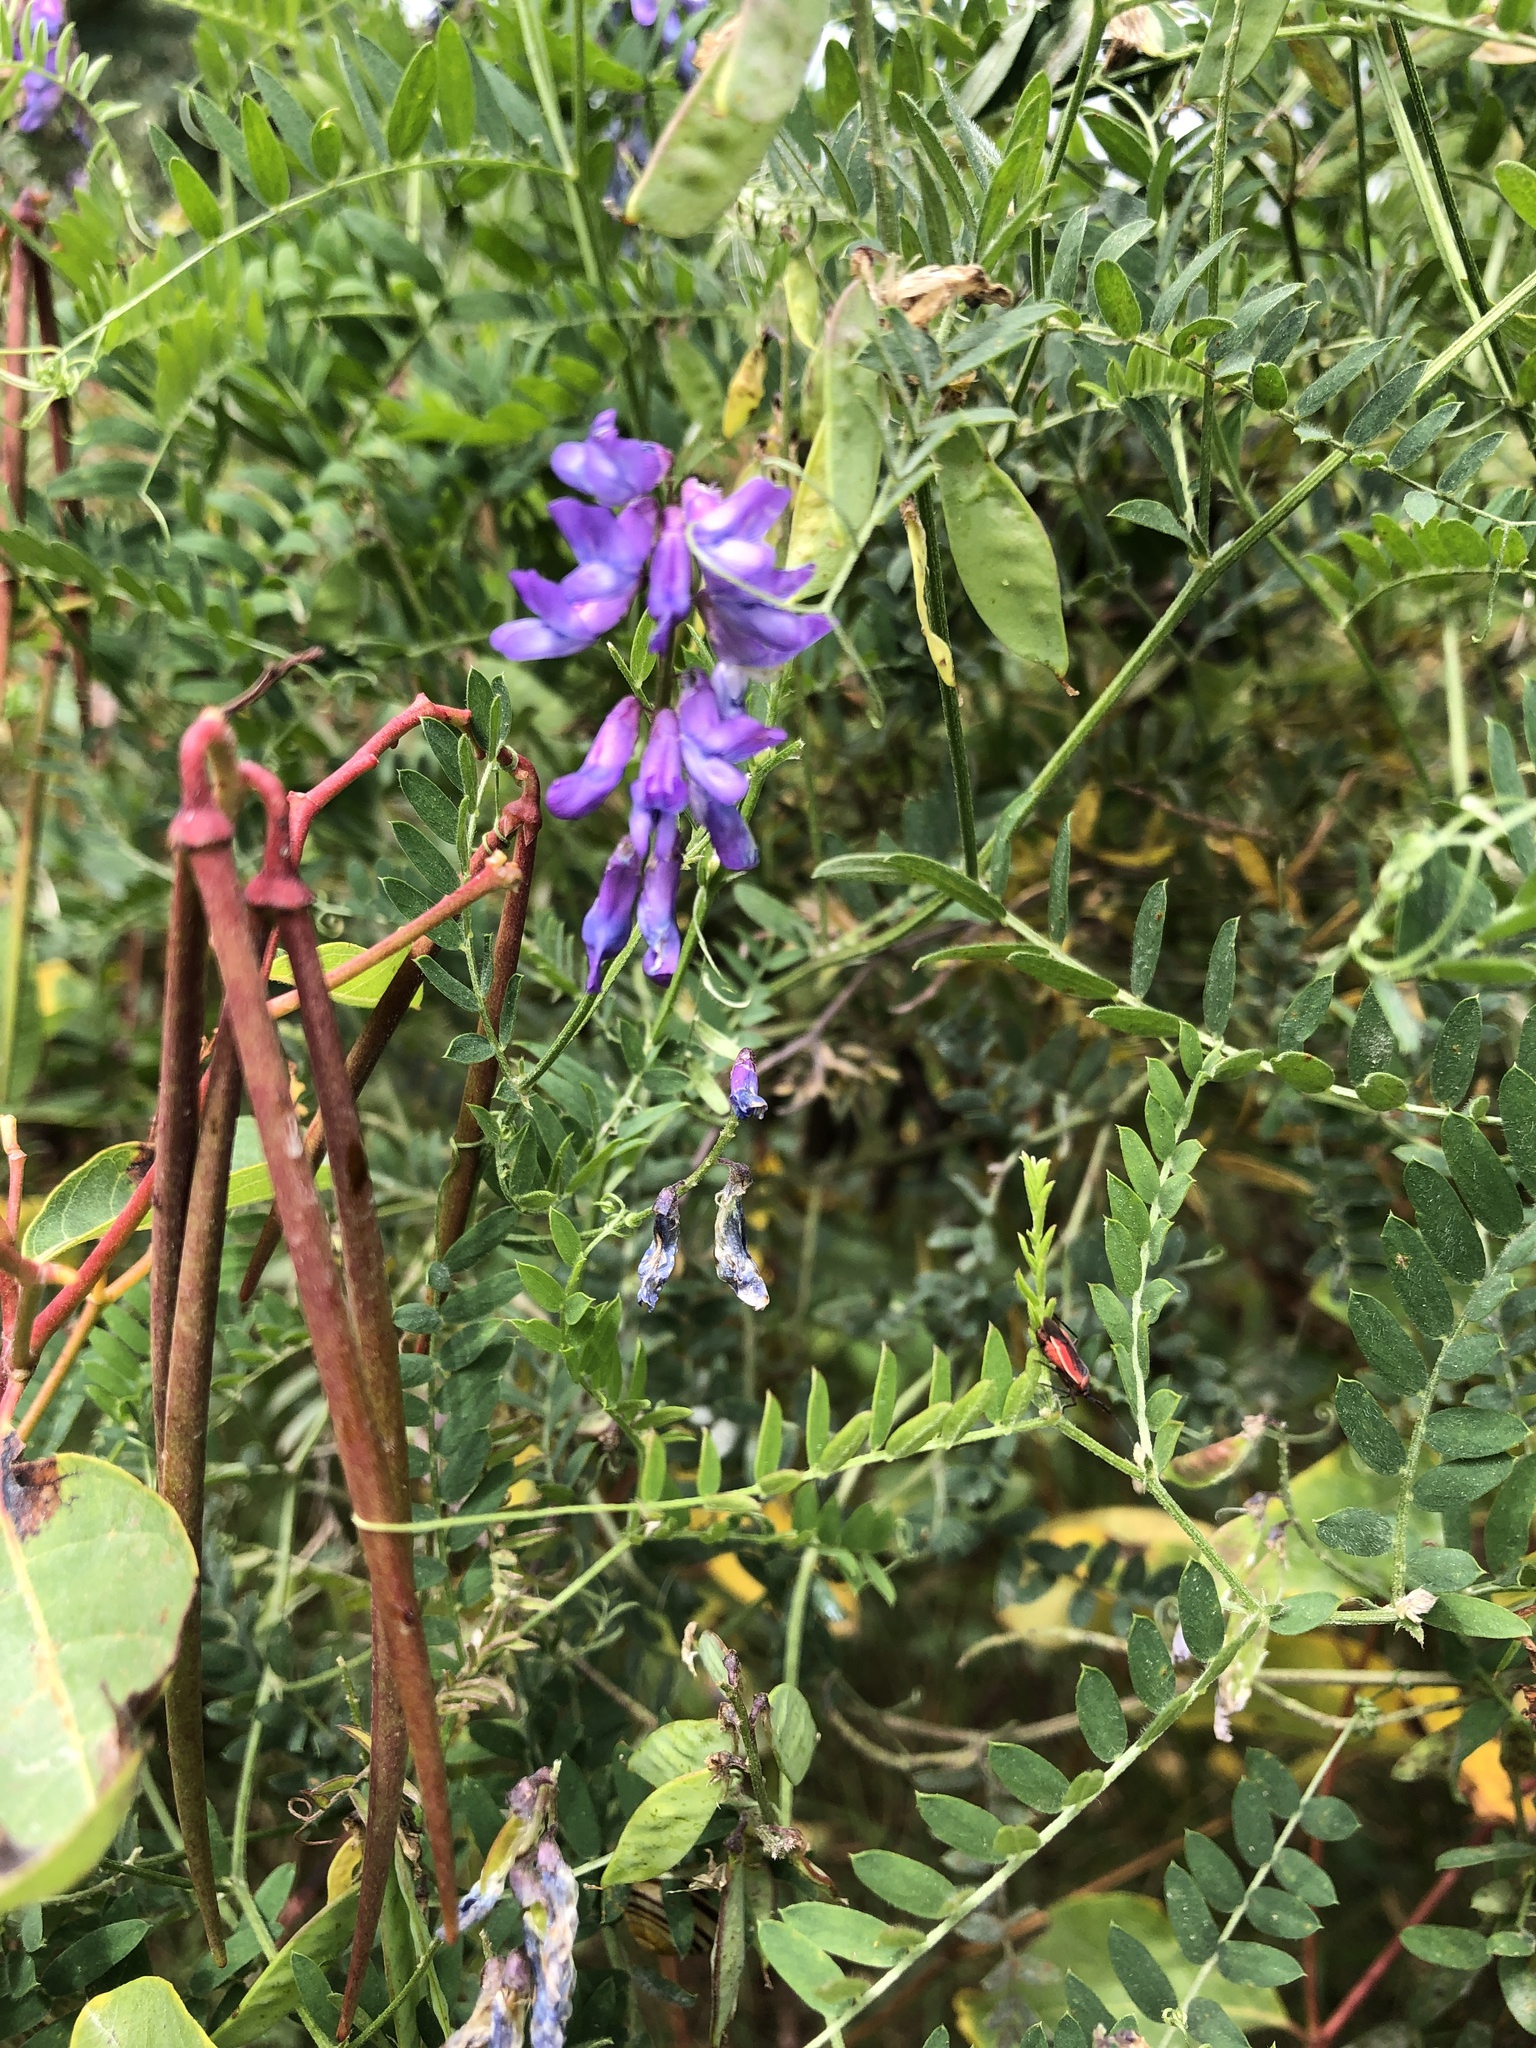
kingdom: Plantae
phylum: Tracheophyta
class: Magnoliopsida
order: Fabales
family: Fabaceae
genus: Vicia
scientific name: Vicia cracca
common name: Bird vetch
